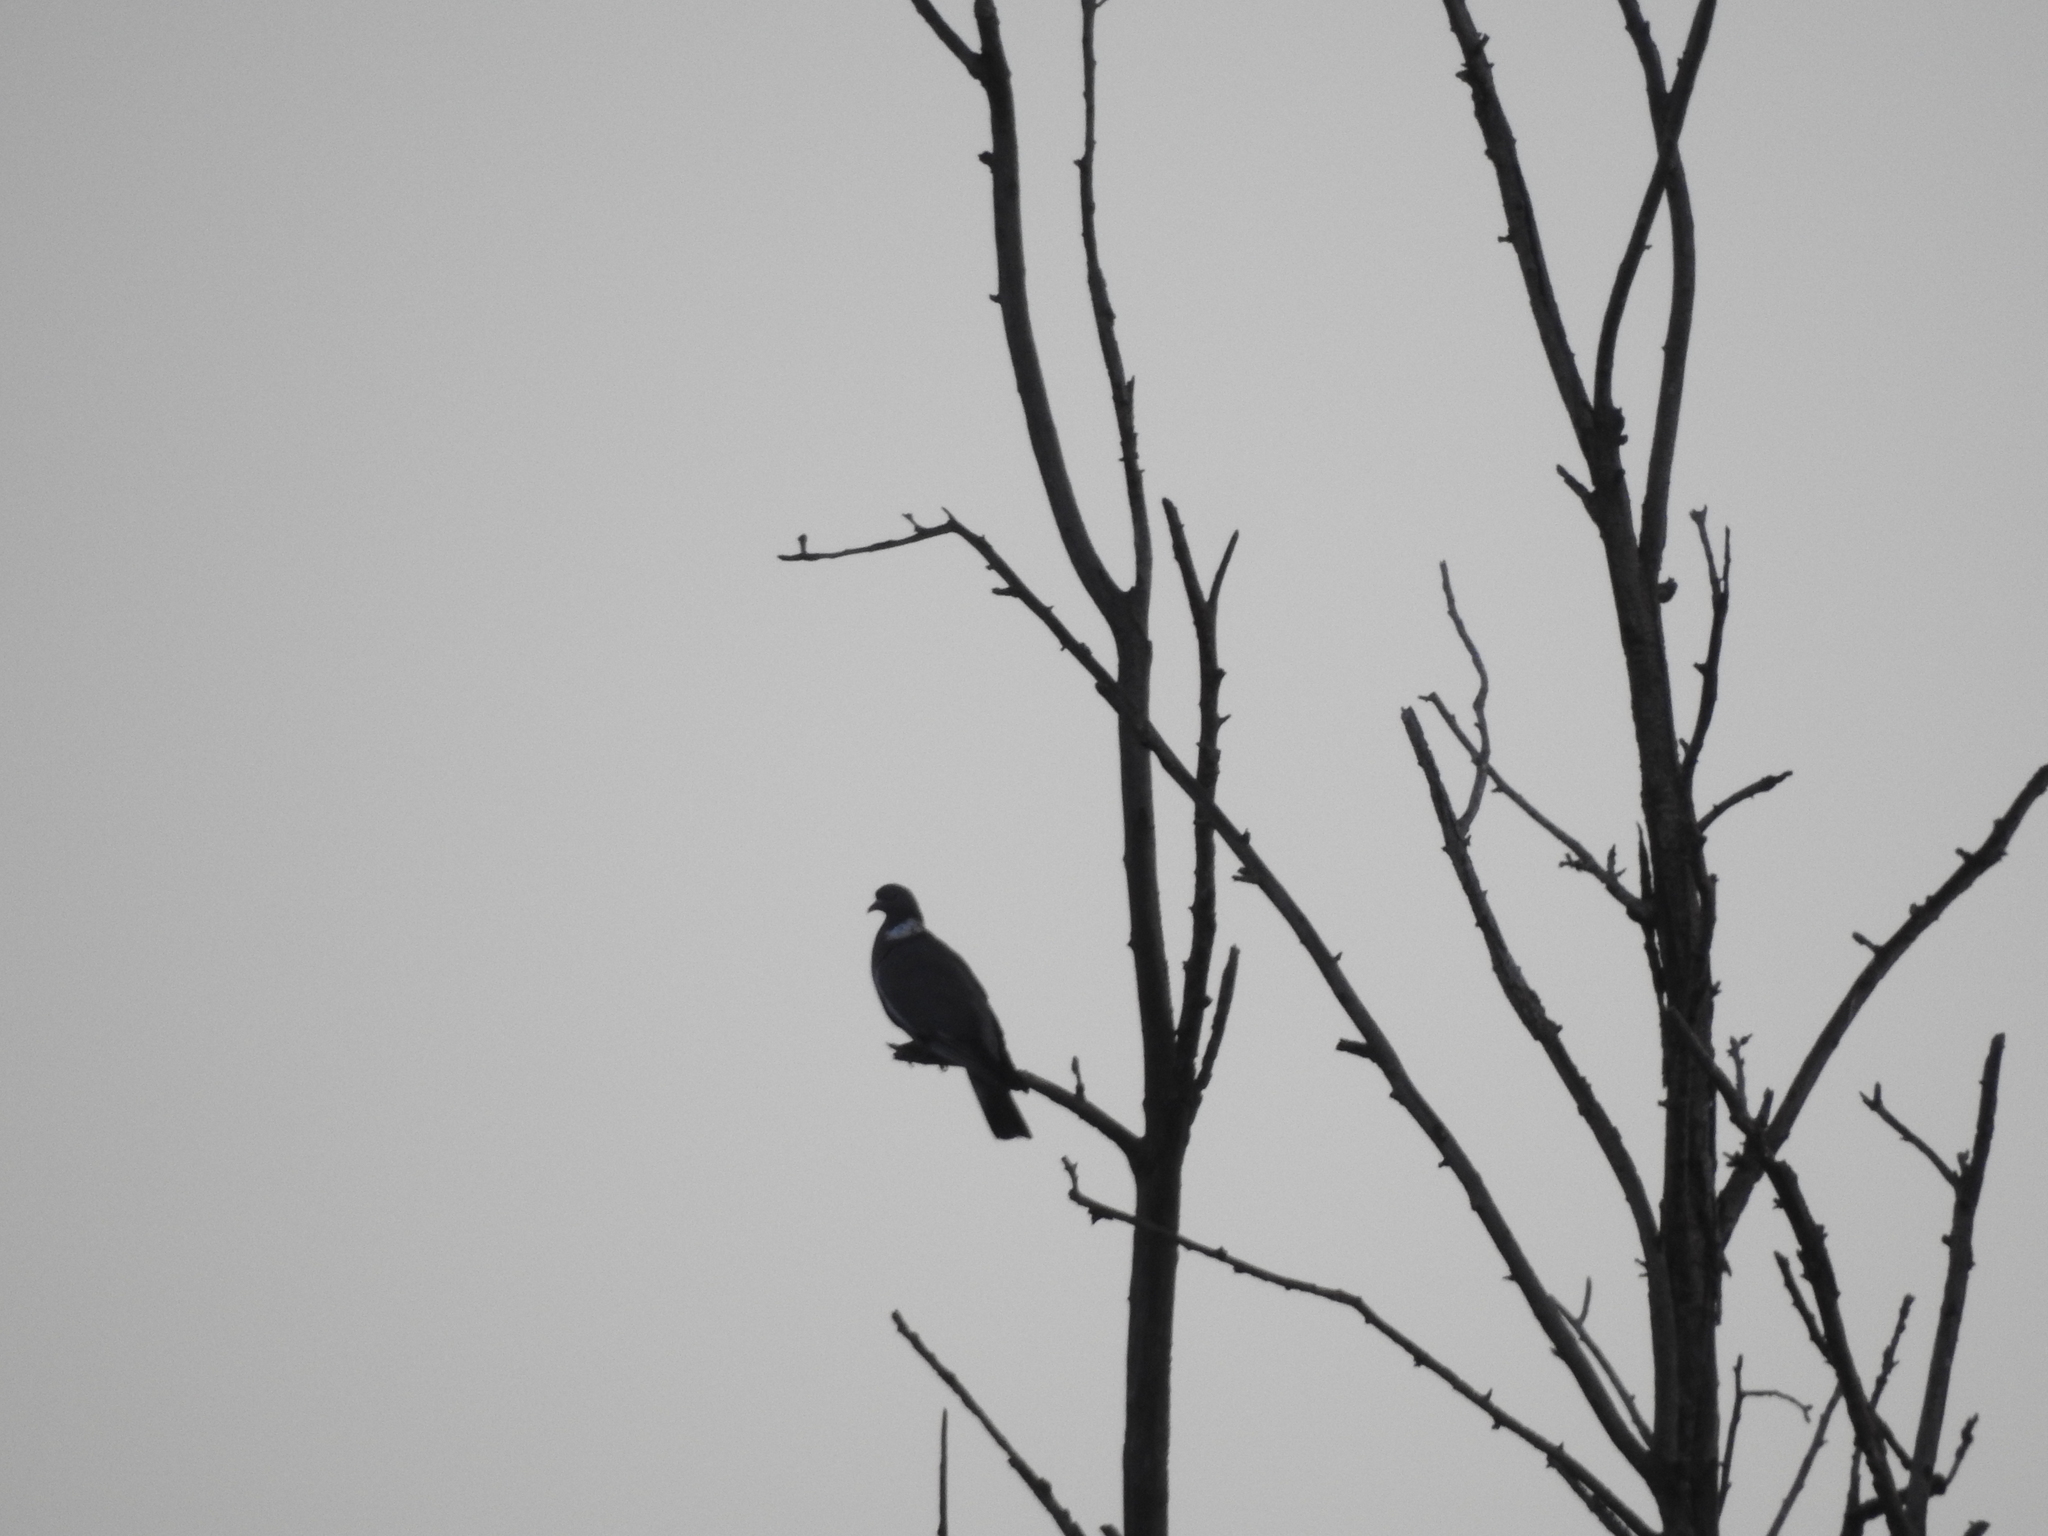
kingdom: Animalia
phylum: Chordata
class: Aves
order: Columbiformes
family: Columbidae
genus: Columba
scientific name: Columba palumbus
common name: Common wood pigeon
